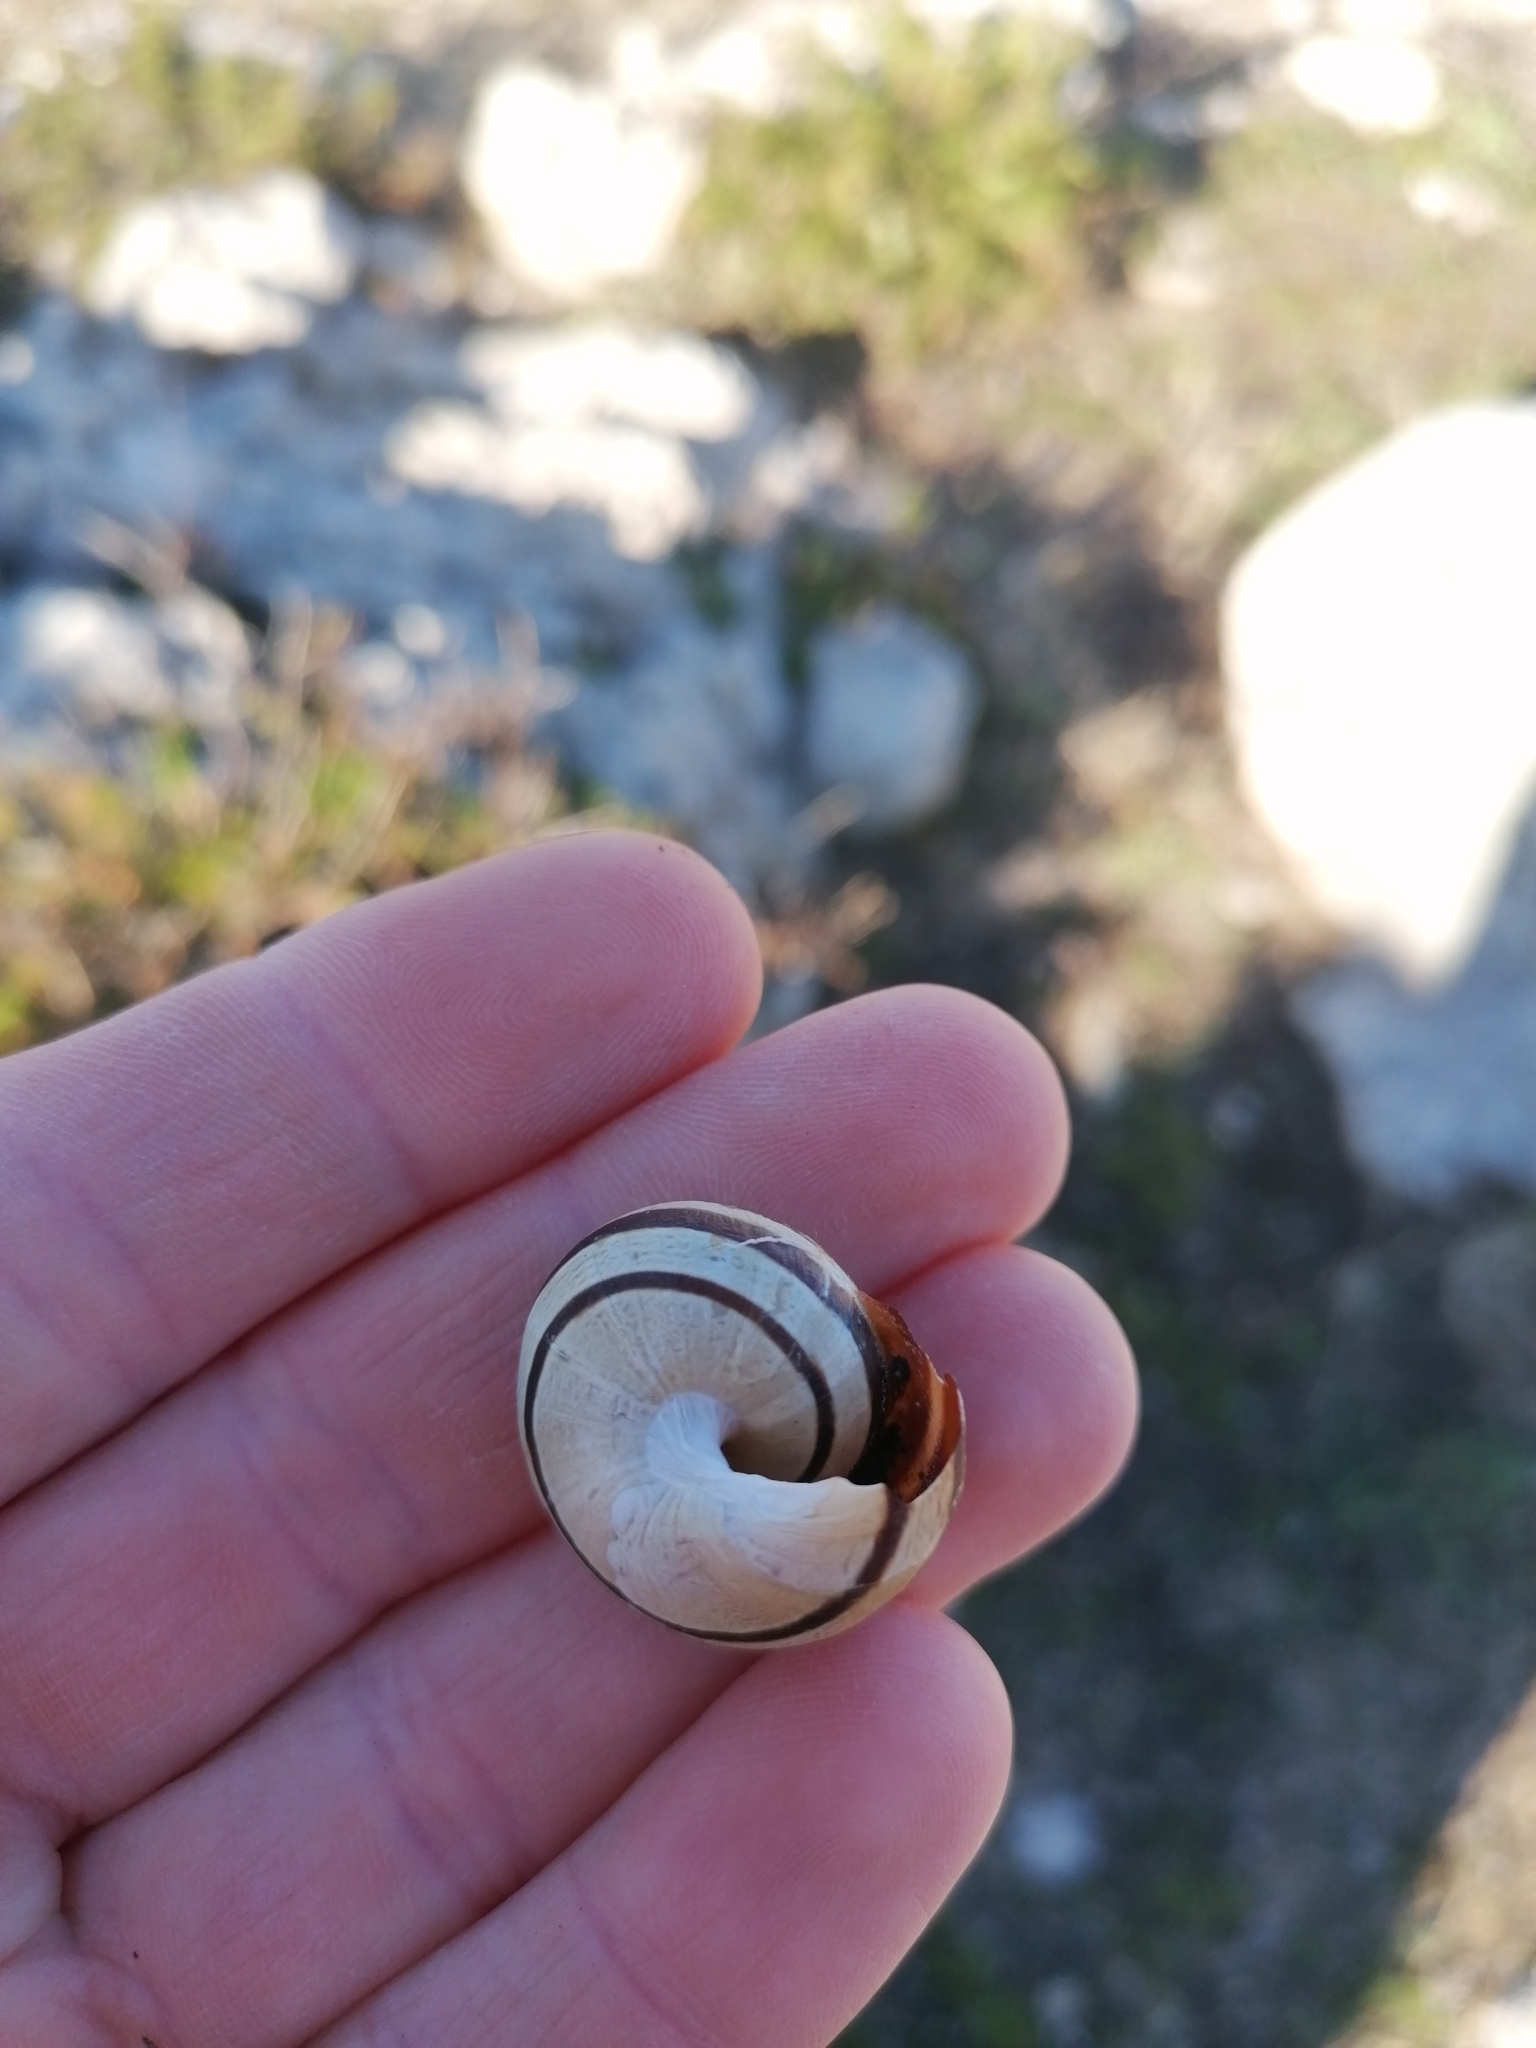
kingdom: Animalia
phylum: Mollusca
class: Gastropoda
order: Stylommatophora
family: Helicidae
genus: Eobania
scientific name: Eobania vermiculata
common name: Chocolateband snail
